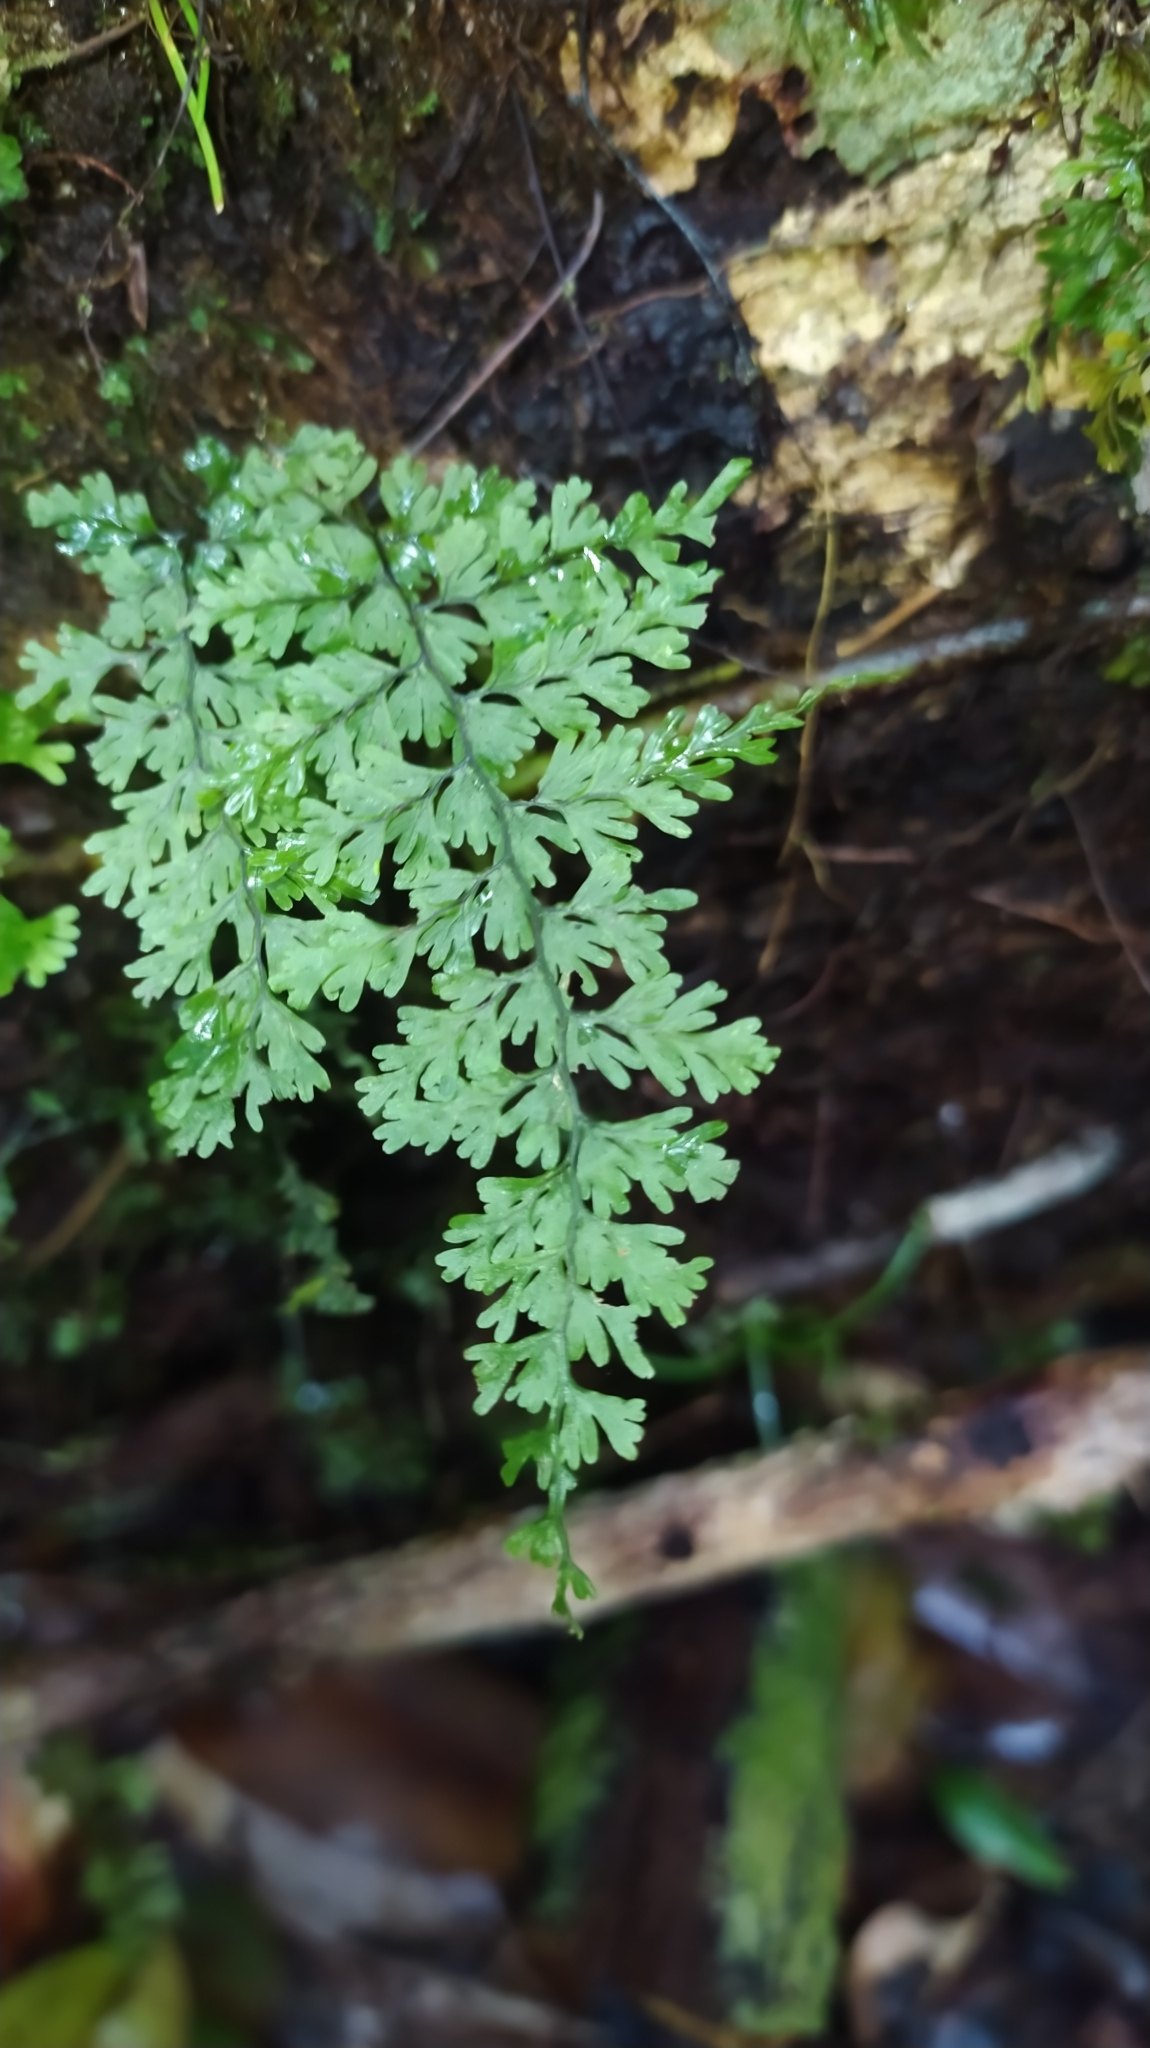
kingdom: Plantae
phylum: Tracheophyta
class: Polypodiopsida
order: Hymenophyllales
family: Hymenophyllaceae
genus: Hymenophyllum
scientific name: Hymenophyllum protrusum
